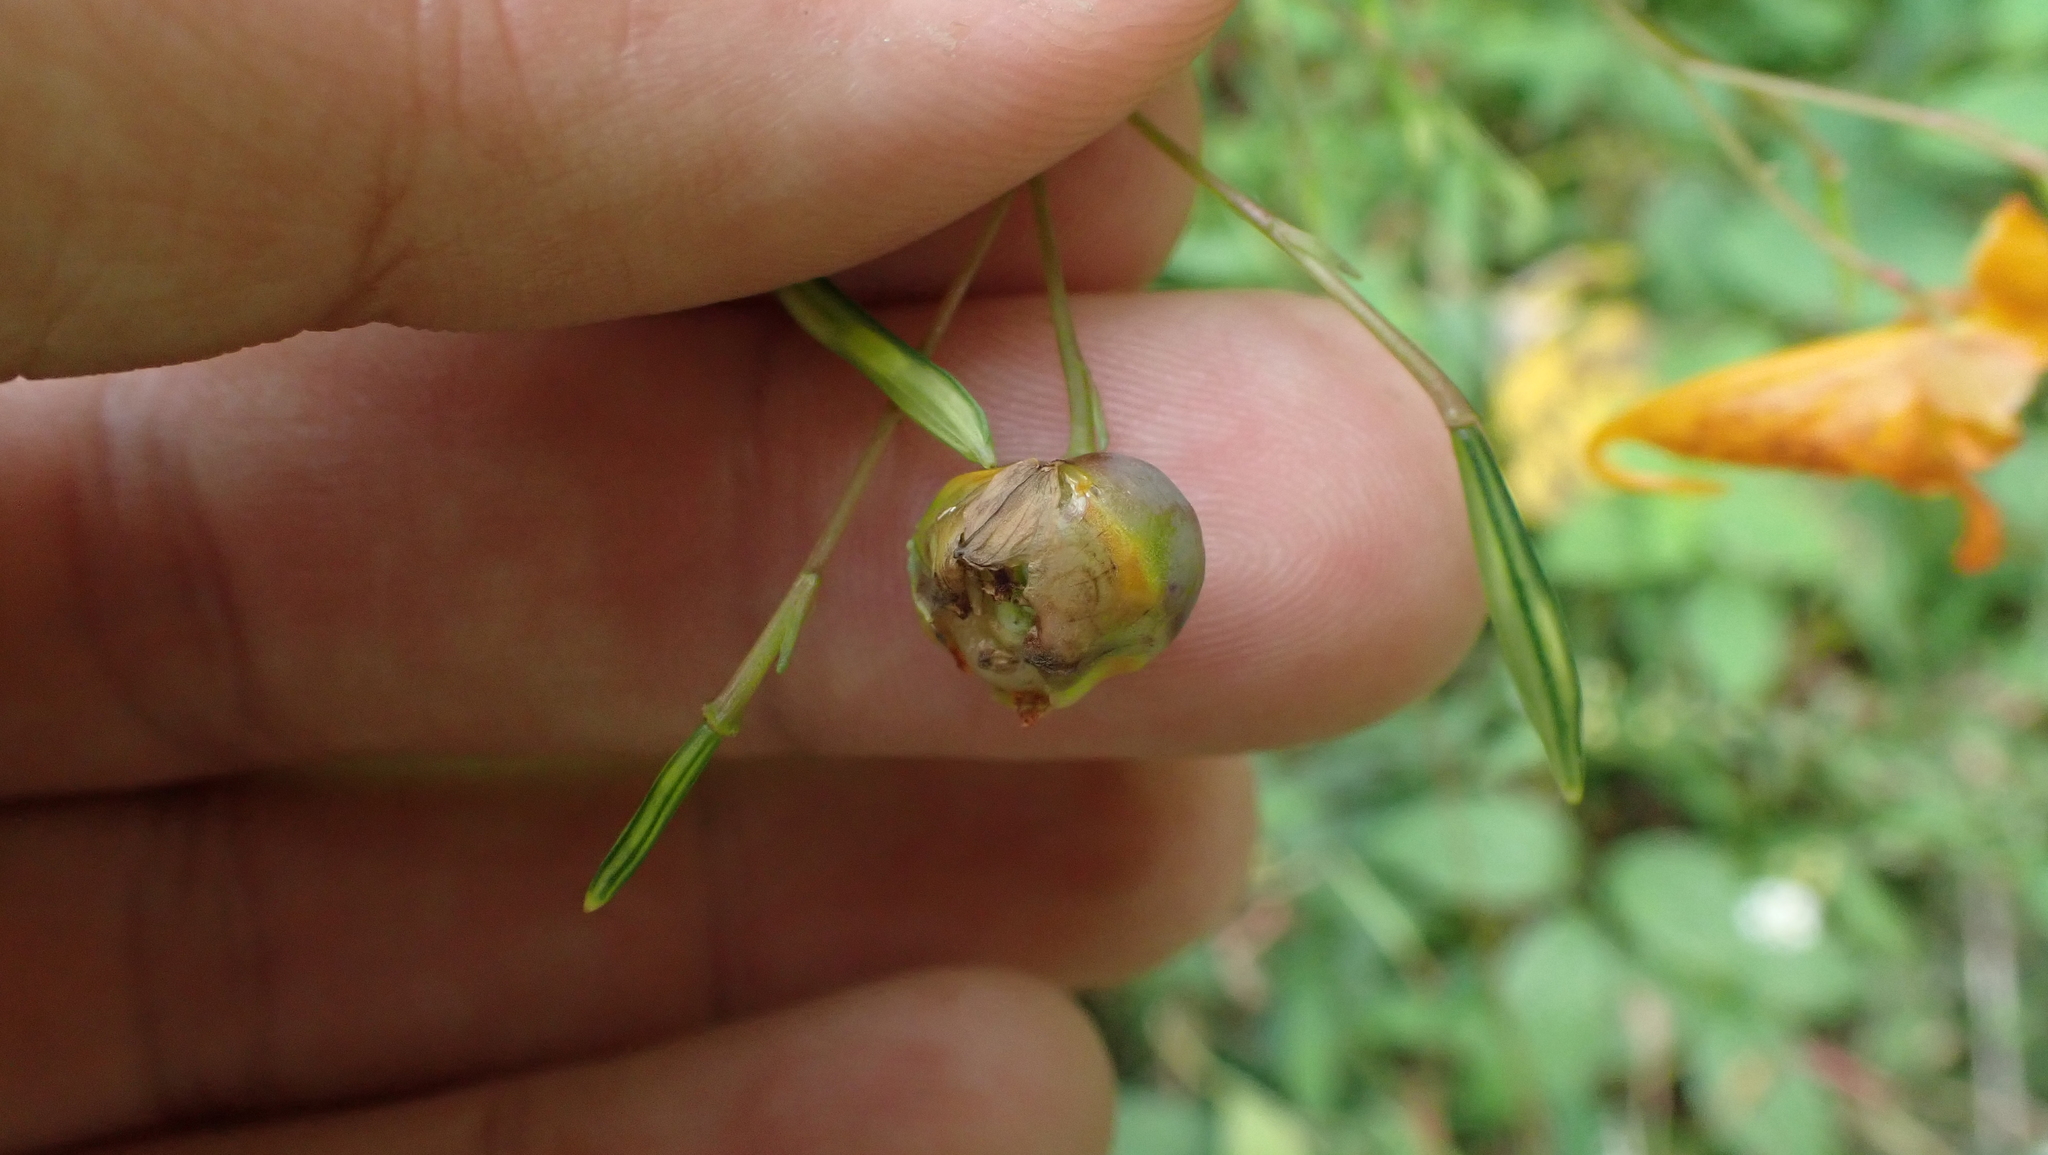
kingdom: Animalia
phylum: Arthropoda
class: Insecta
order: Diptera
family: Cecidomyiidae
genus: Schizomyia
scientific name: Schizomyia impatientis
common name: Jewelweed gall midge
